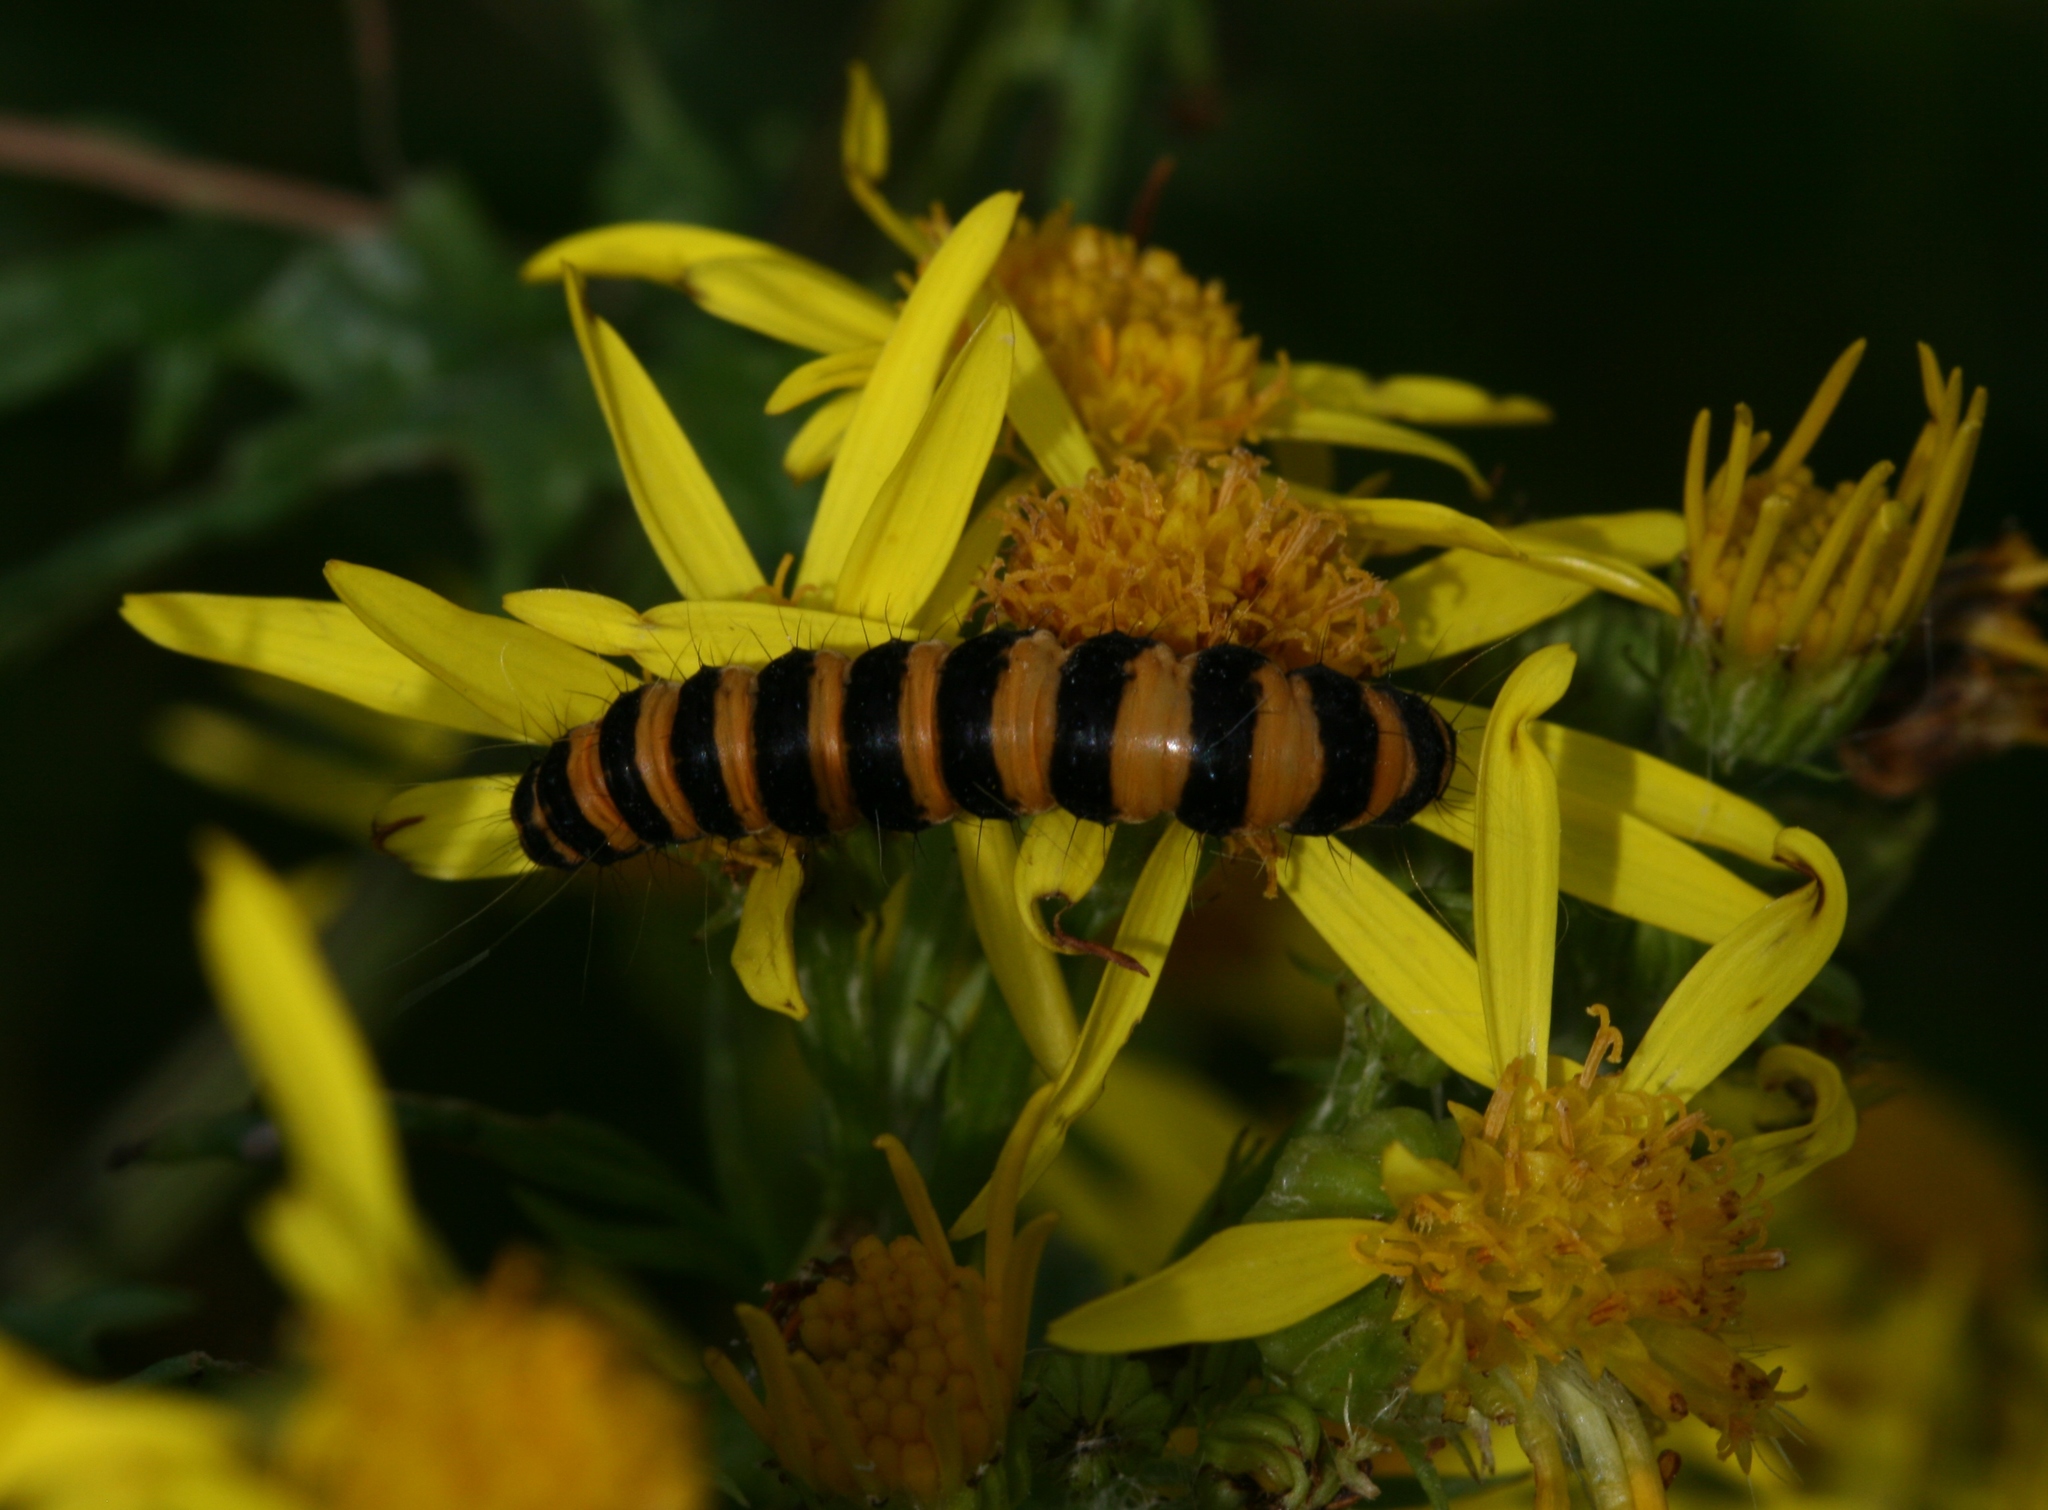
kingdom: Animalia
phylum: Arthropoda
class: Insecta
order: Lepidoptera
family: Erebidae
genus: Tyria
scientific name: Tyria jacobaeae
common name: Cinnabar
